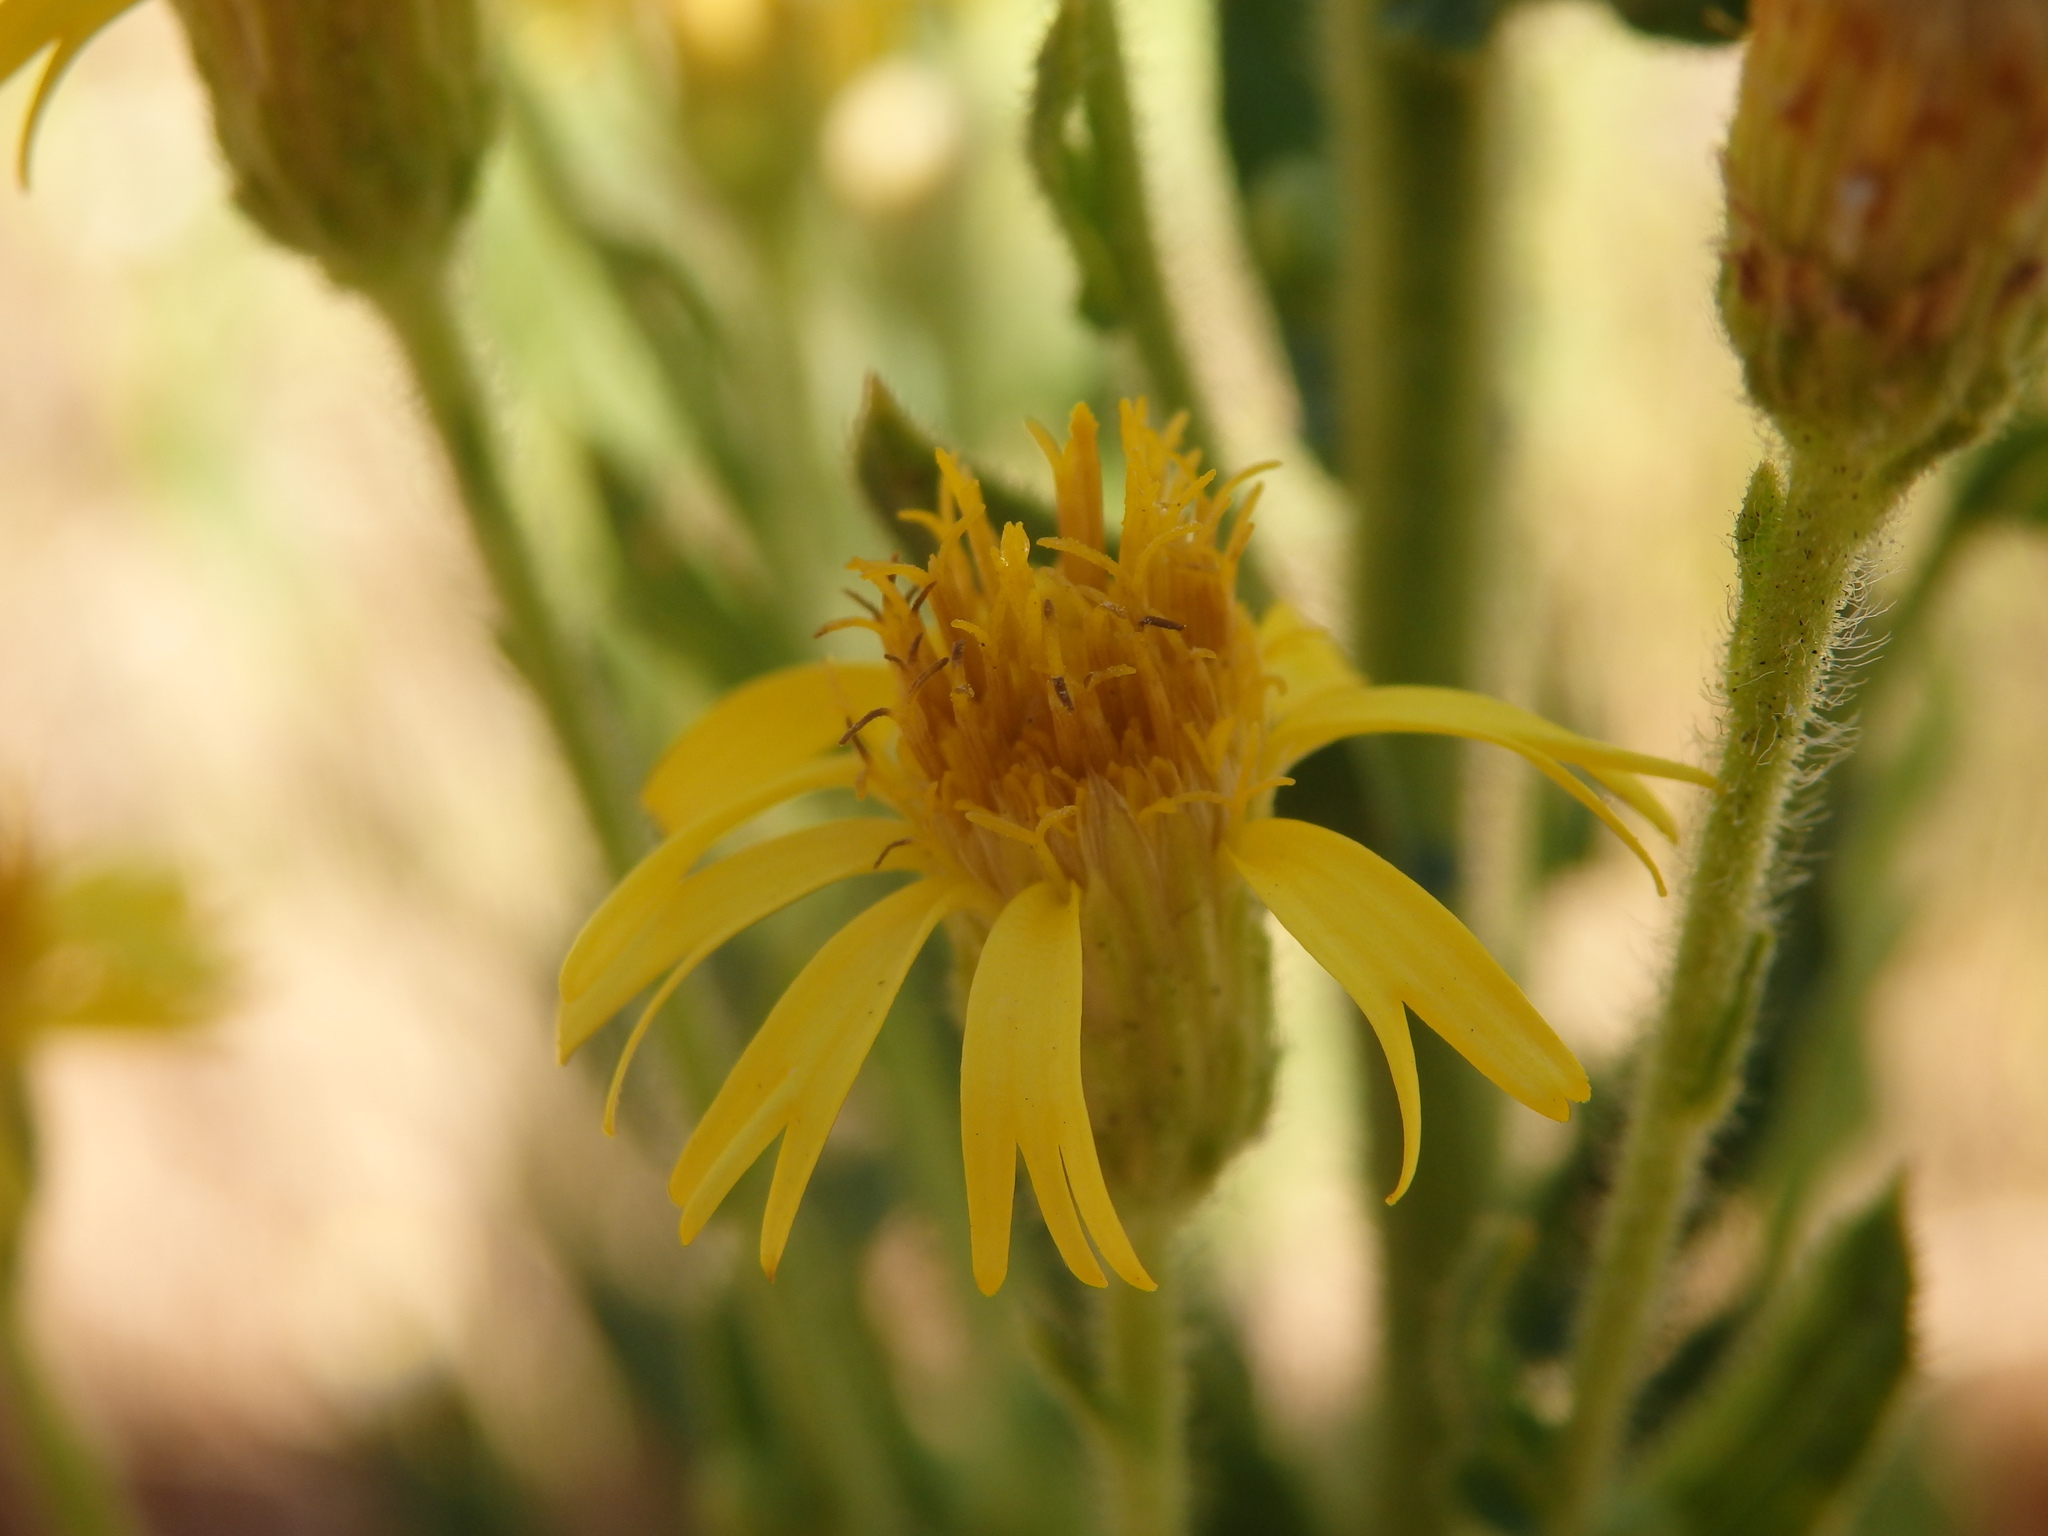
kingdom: Plantae
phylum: Tracheophyta
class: Magnoliopsida
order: Asterales
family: Asteraceae
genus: Dittrichia
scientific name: Dittrichia viscosa
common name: Woody fleabane
